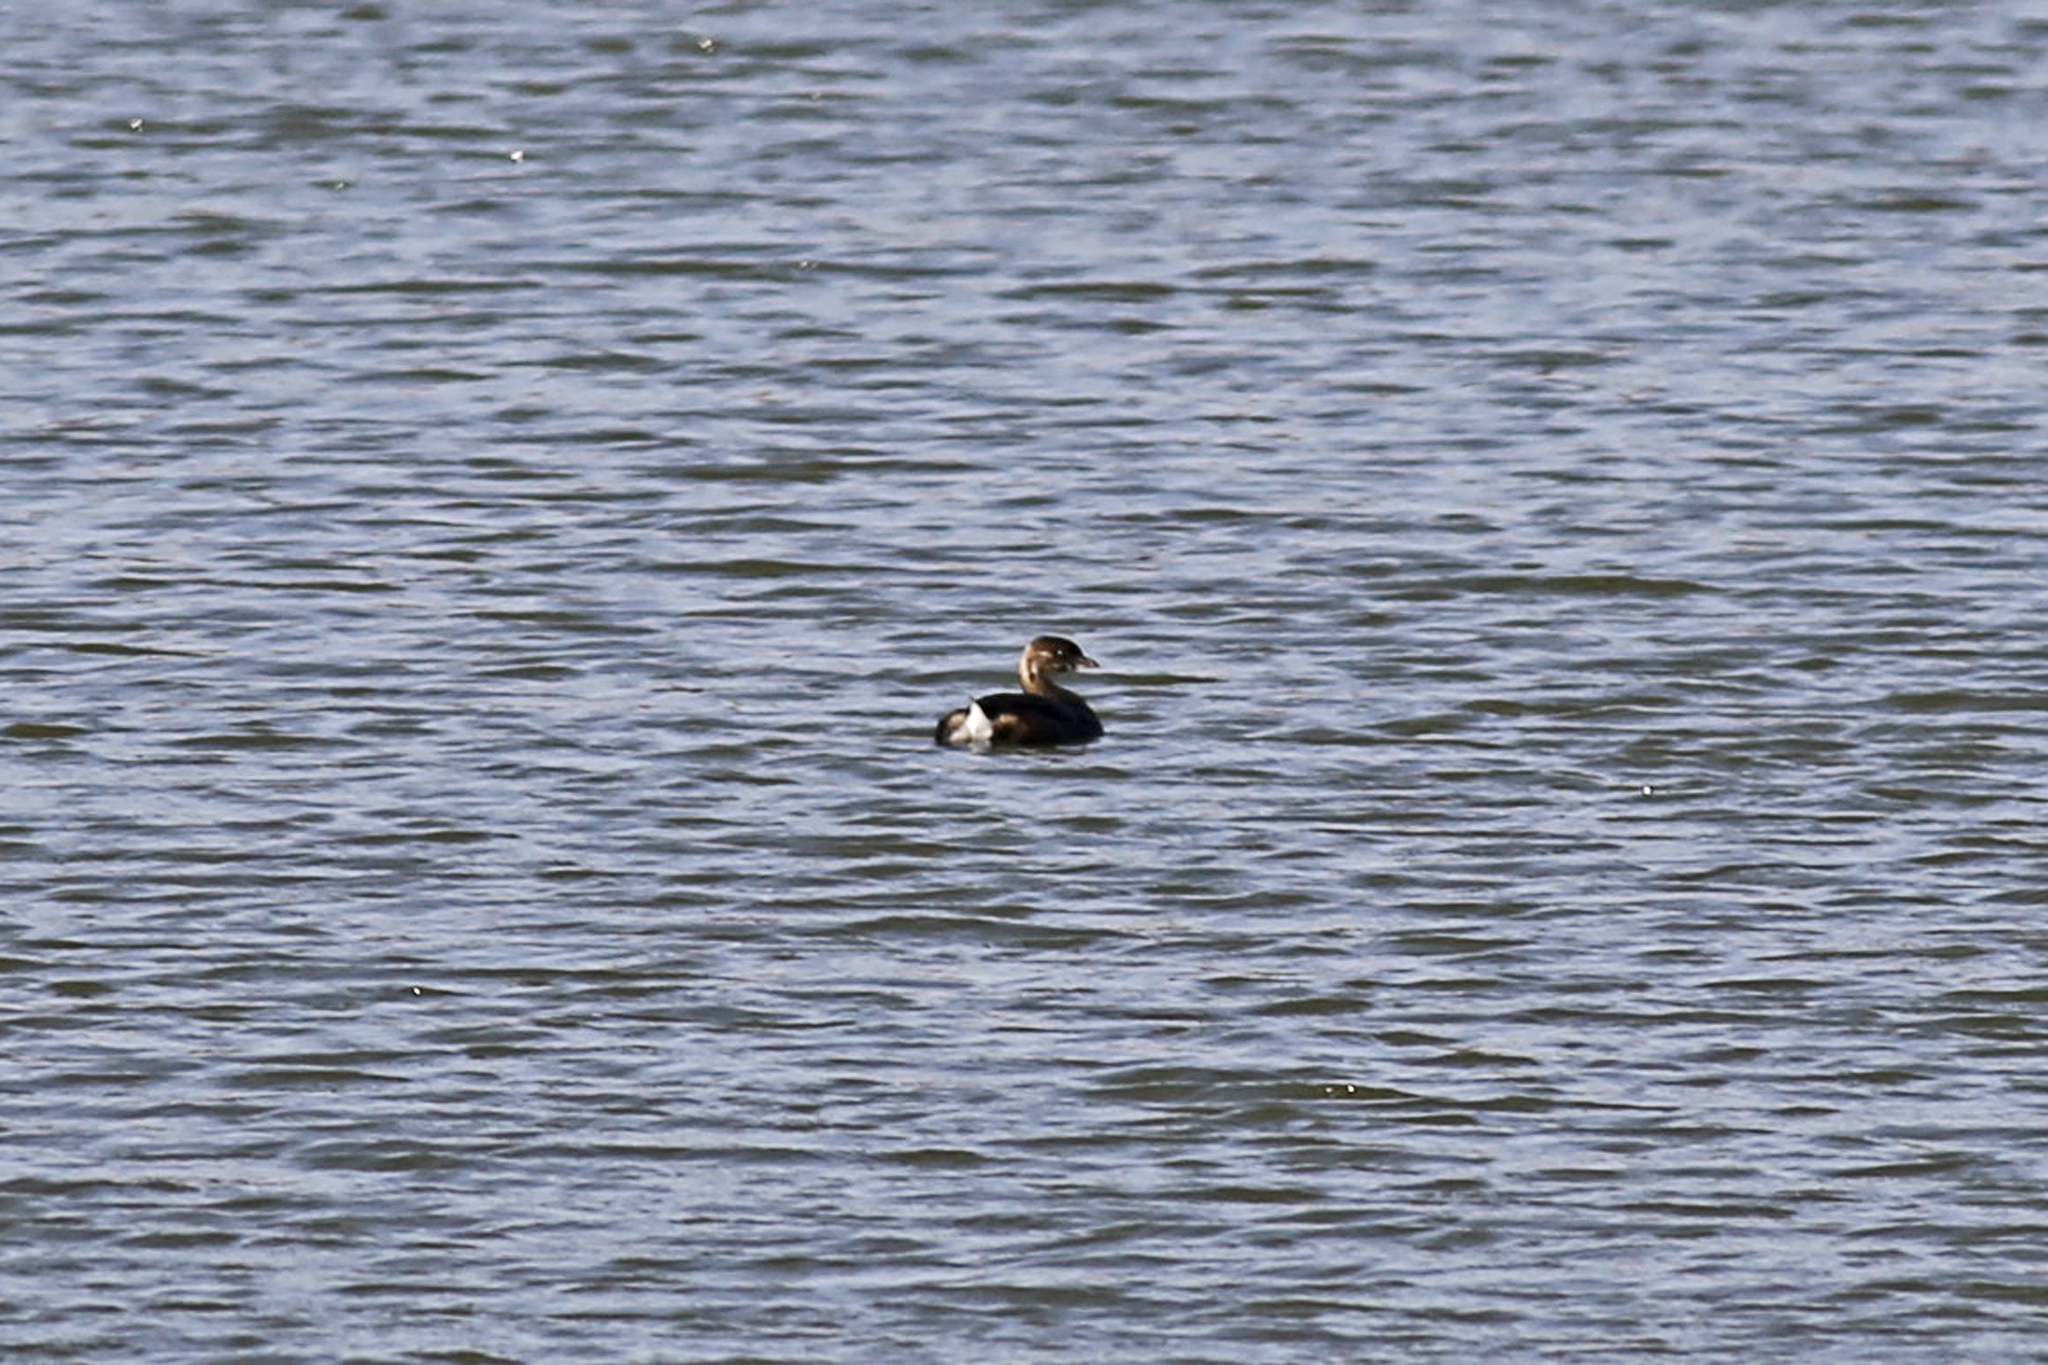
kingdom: Animalia
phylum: Chordata
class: Aves
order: Podicipediformes
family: Podicipedidae
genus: Podilymbus
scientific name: Podilymbus podiceps
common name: Pied-billed grebe
